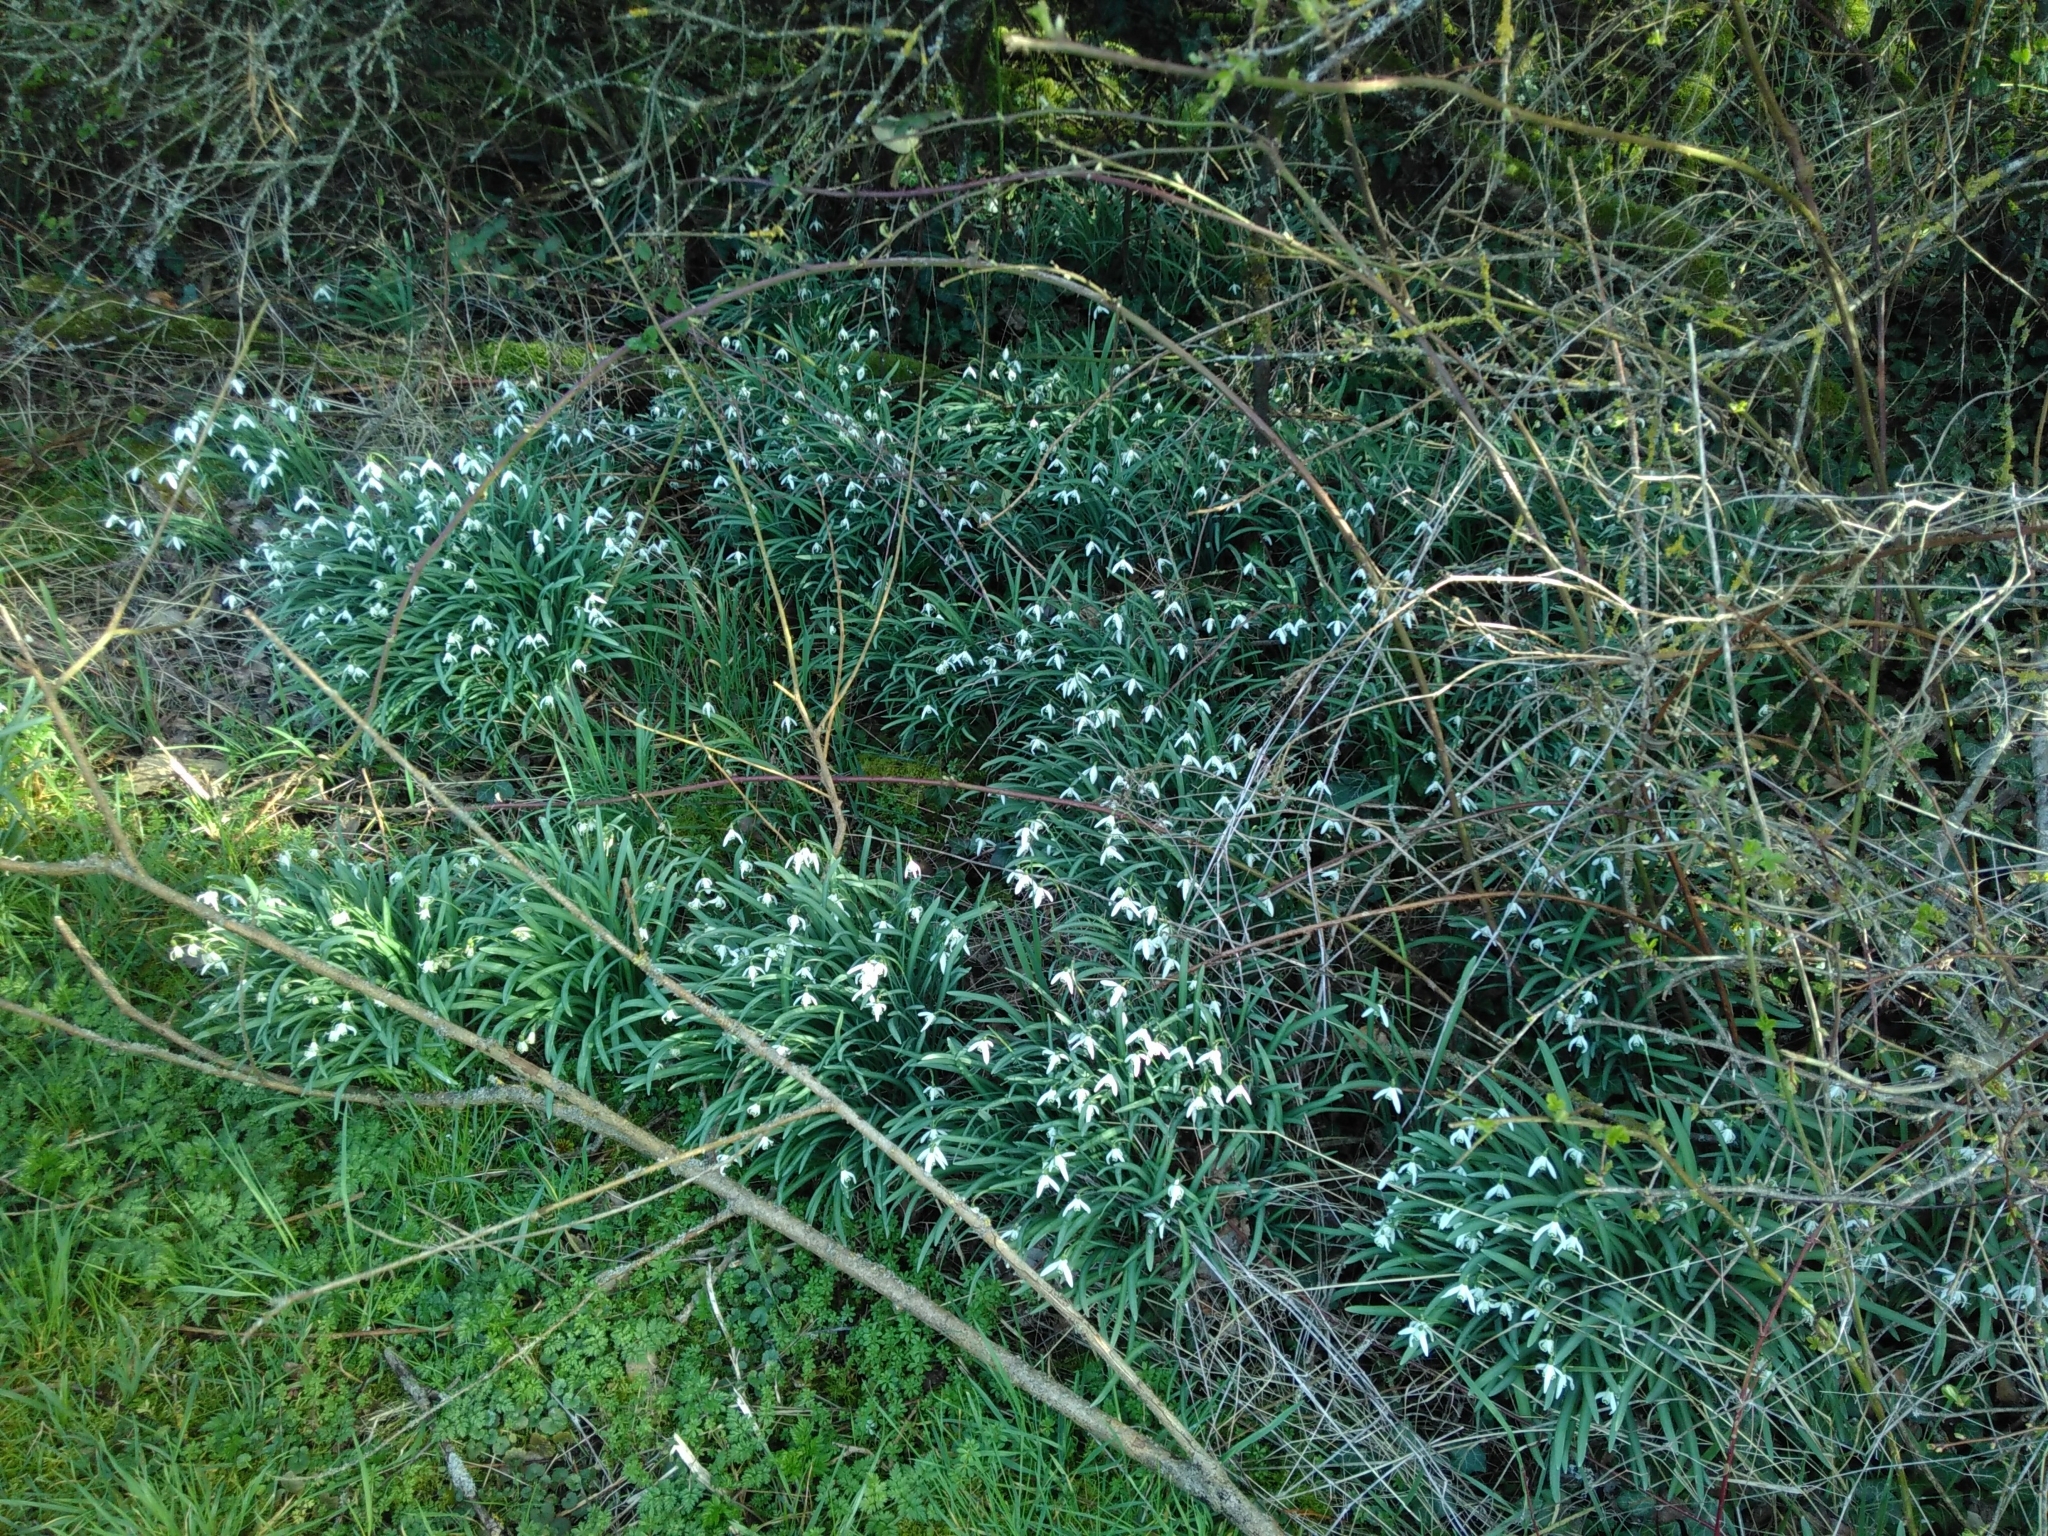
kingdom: Plantae
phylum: Tracheophyta
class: Liliopsida
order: Asparagales
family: Amaryllidaceae
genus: Galanthus
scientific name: Galanthus nivalis
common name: Snowdrop
